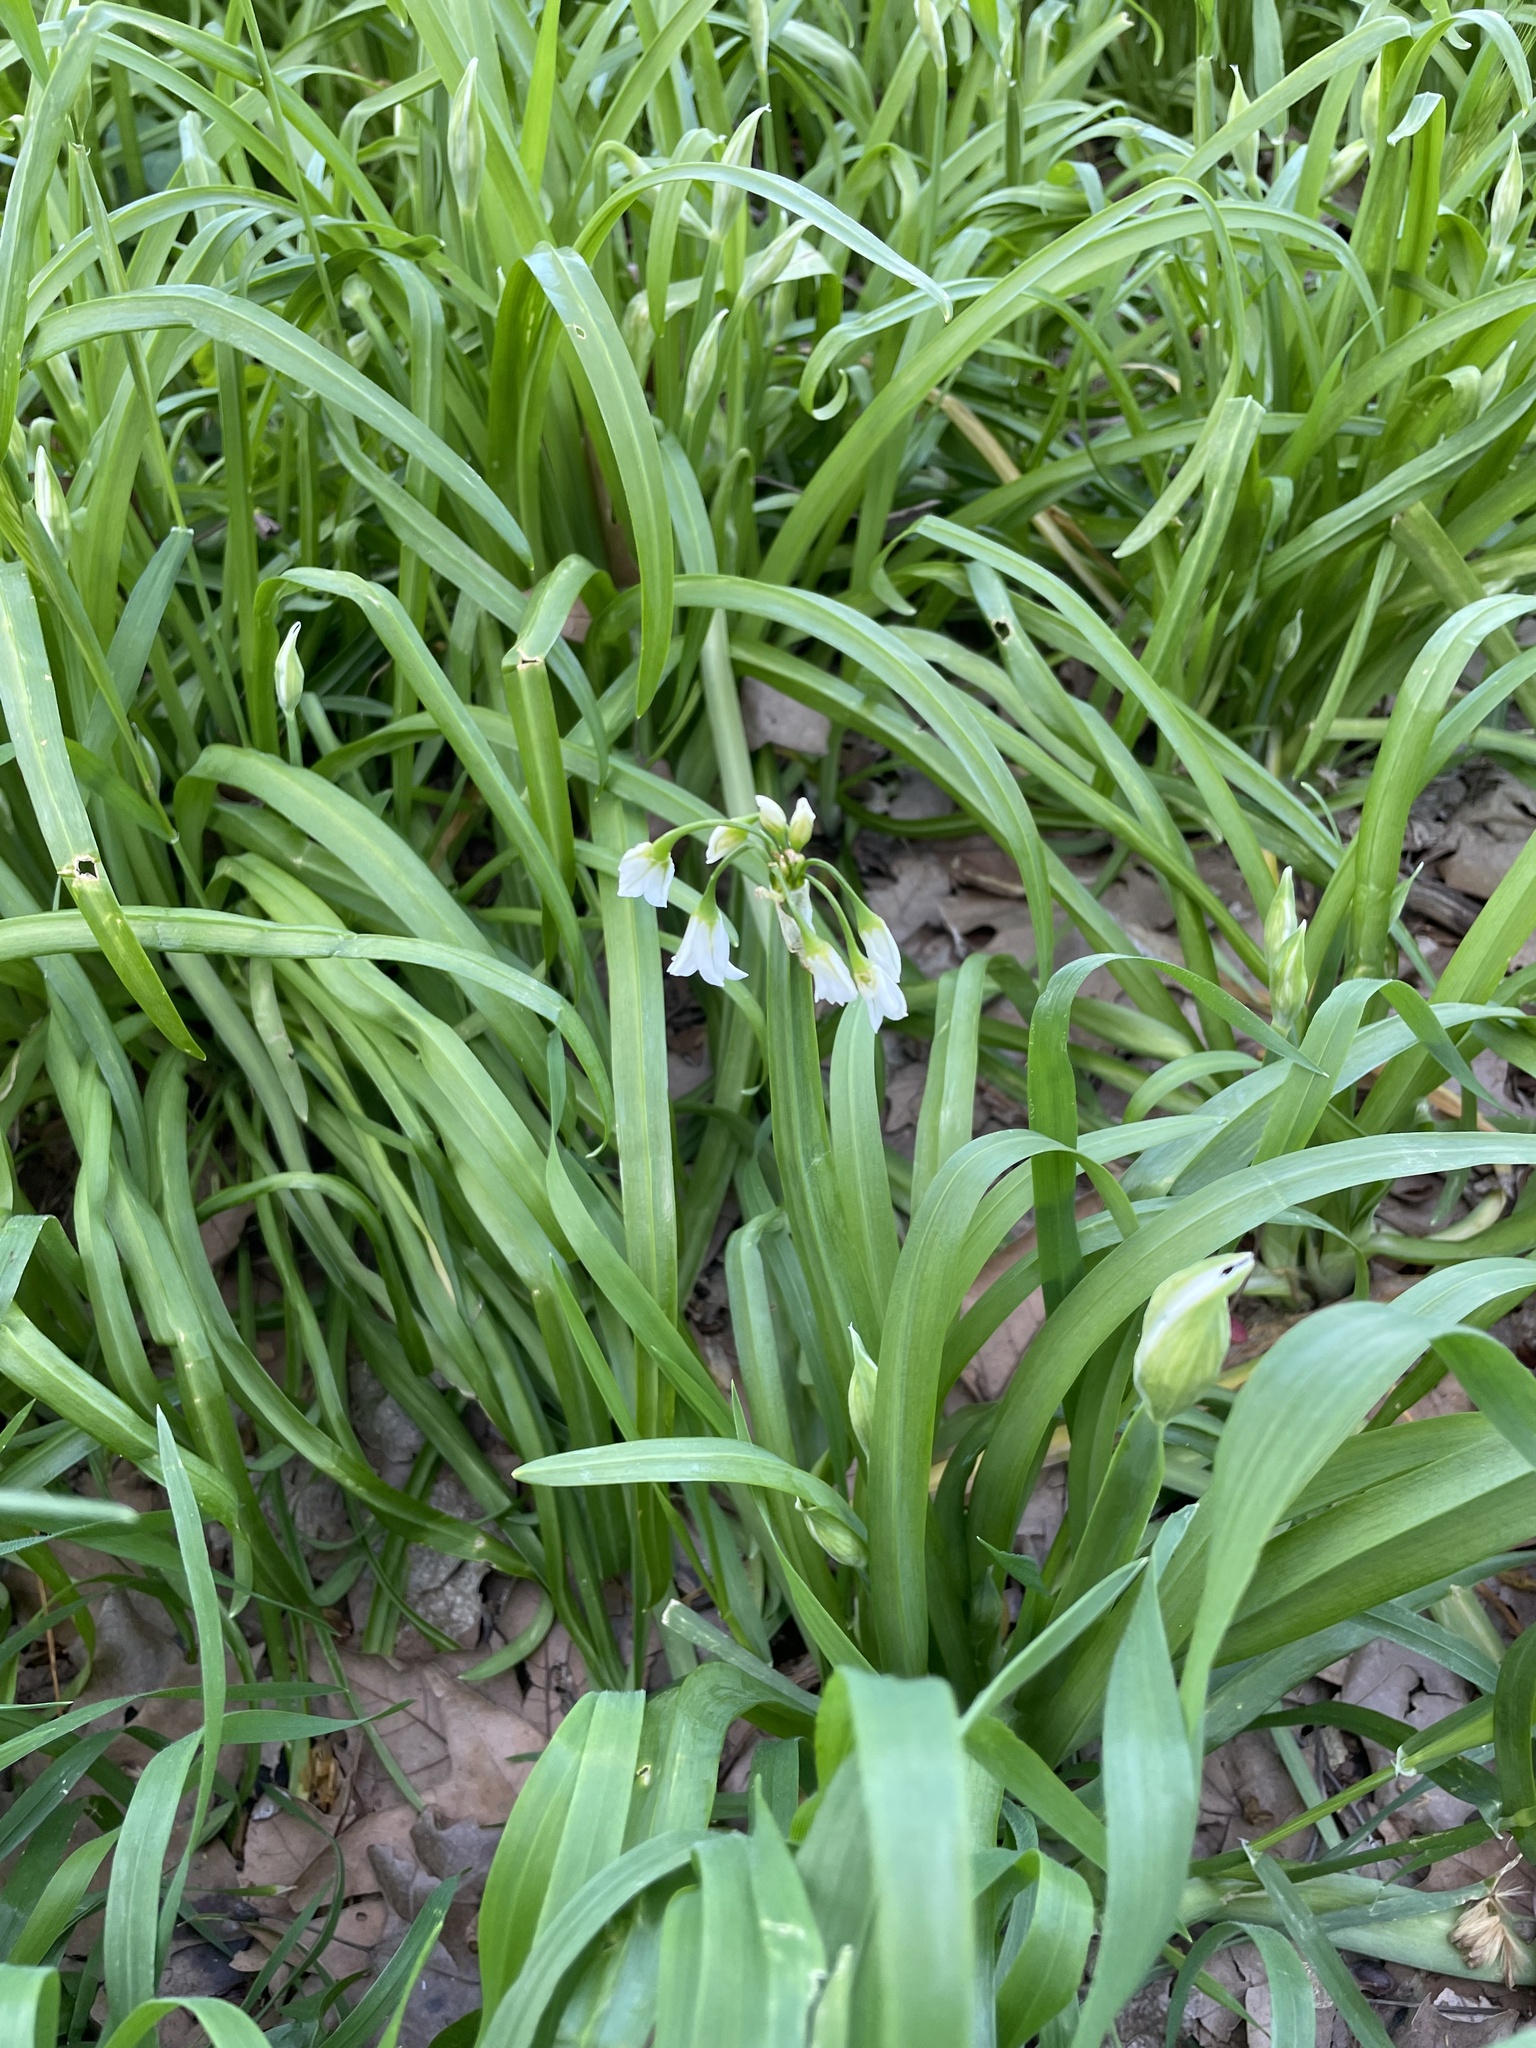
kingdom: Plantae
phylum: Tracheophyta
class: Liliopsida
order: Asparagales
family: Amaryllidaceae
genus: Allium
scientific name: Allium triquetrum
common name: Three-cornered garlic
